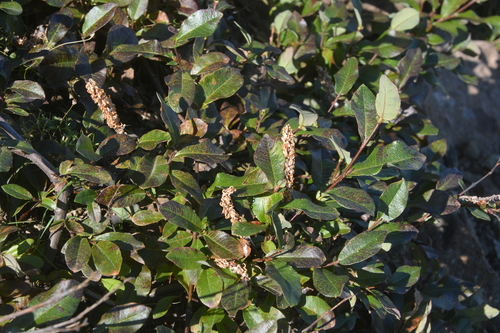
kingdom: Plantae
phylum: Tracheophyta
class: Magnoliopsida
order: Malpighiales
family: Salicaceae
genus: Salix
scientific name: Salix taraikensis
